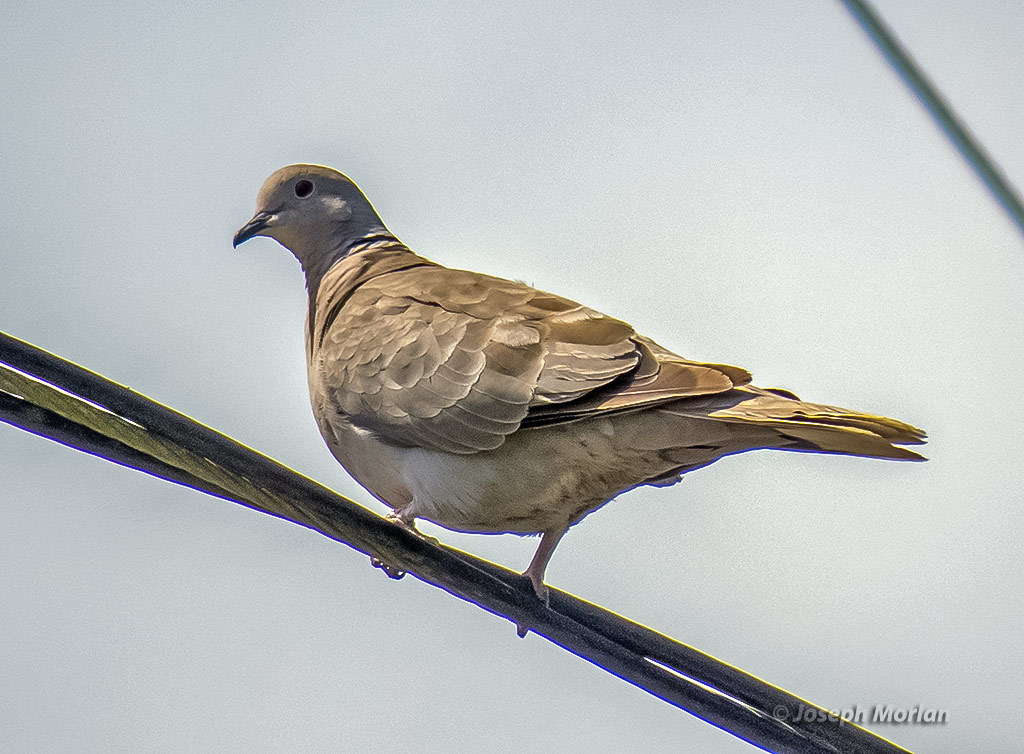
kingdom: Animalia
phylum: Chordata
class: Aves
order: Columbiformes
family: Columbidae
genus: Streptopelia
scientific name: Streptopelia decaocto
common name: Eurasian collared dove
